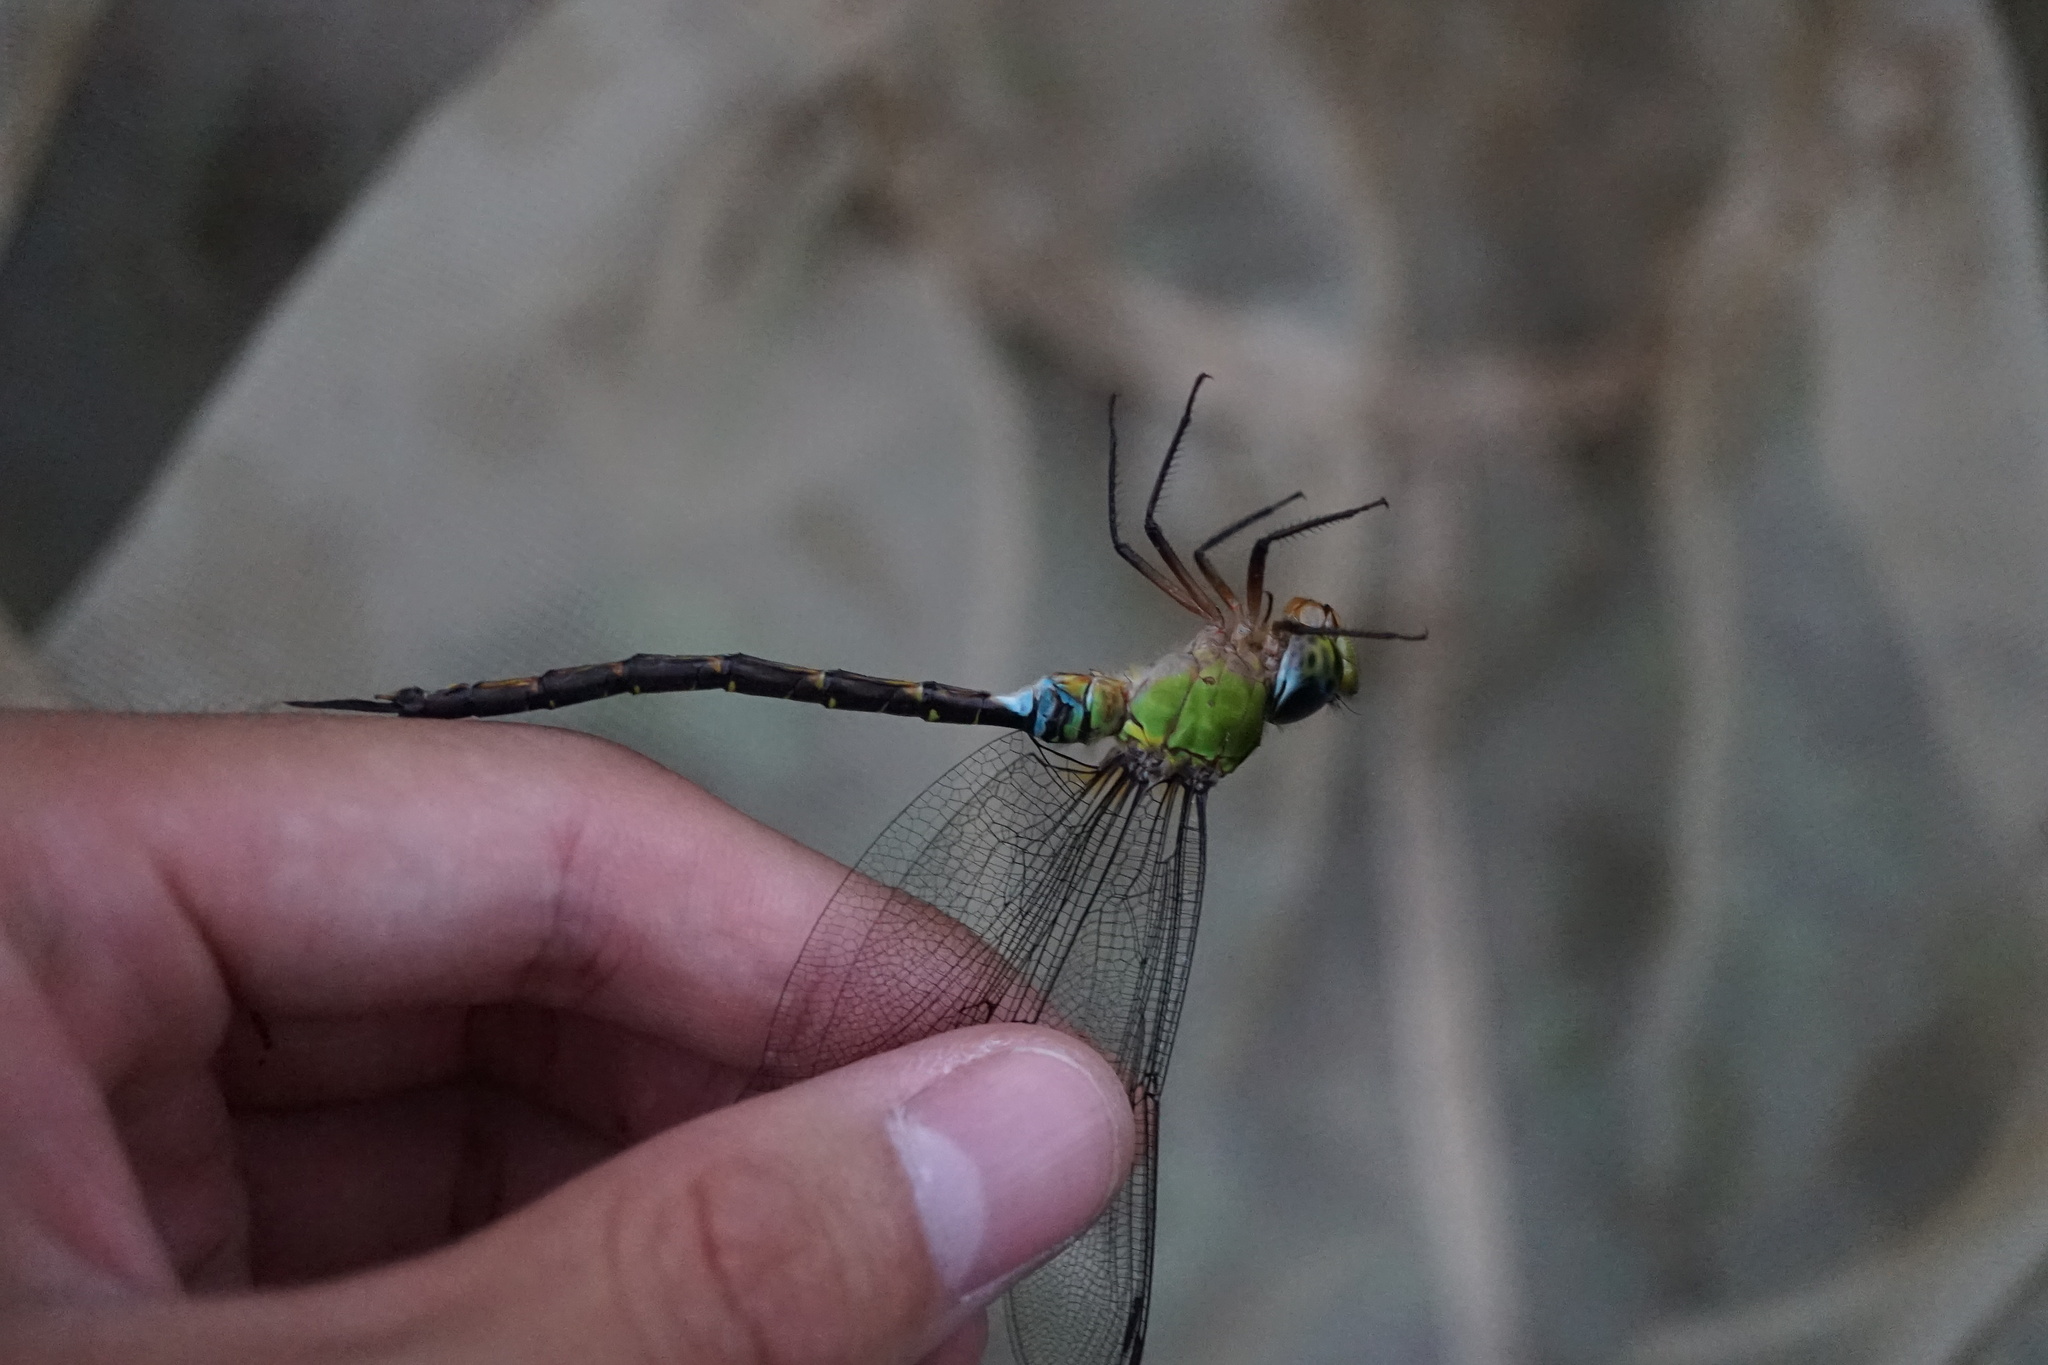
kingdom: Animalia
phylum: Arthropoda
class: Insecta
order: Odonata
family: Aeshnidae
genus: Gynacantha
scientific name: Gynacantha japonica
